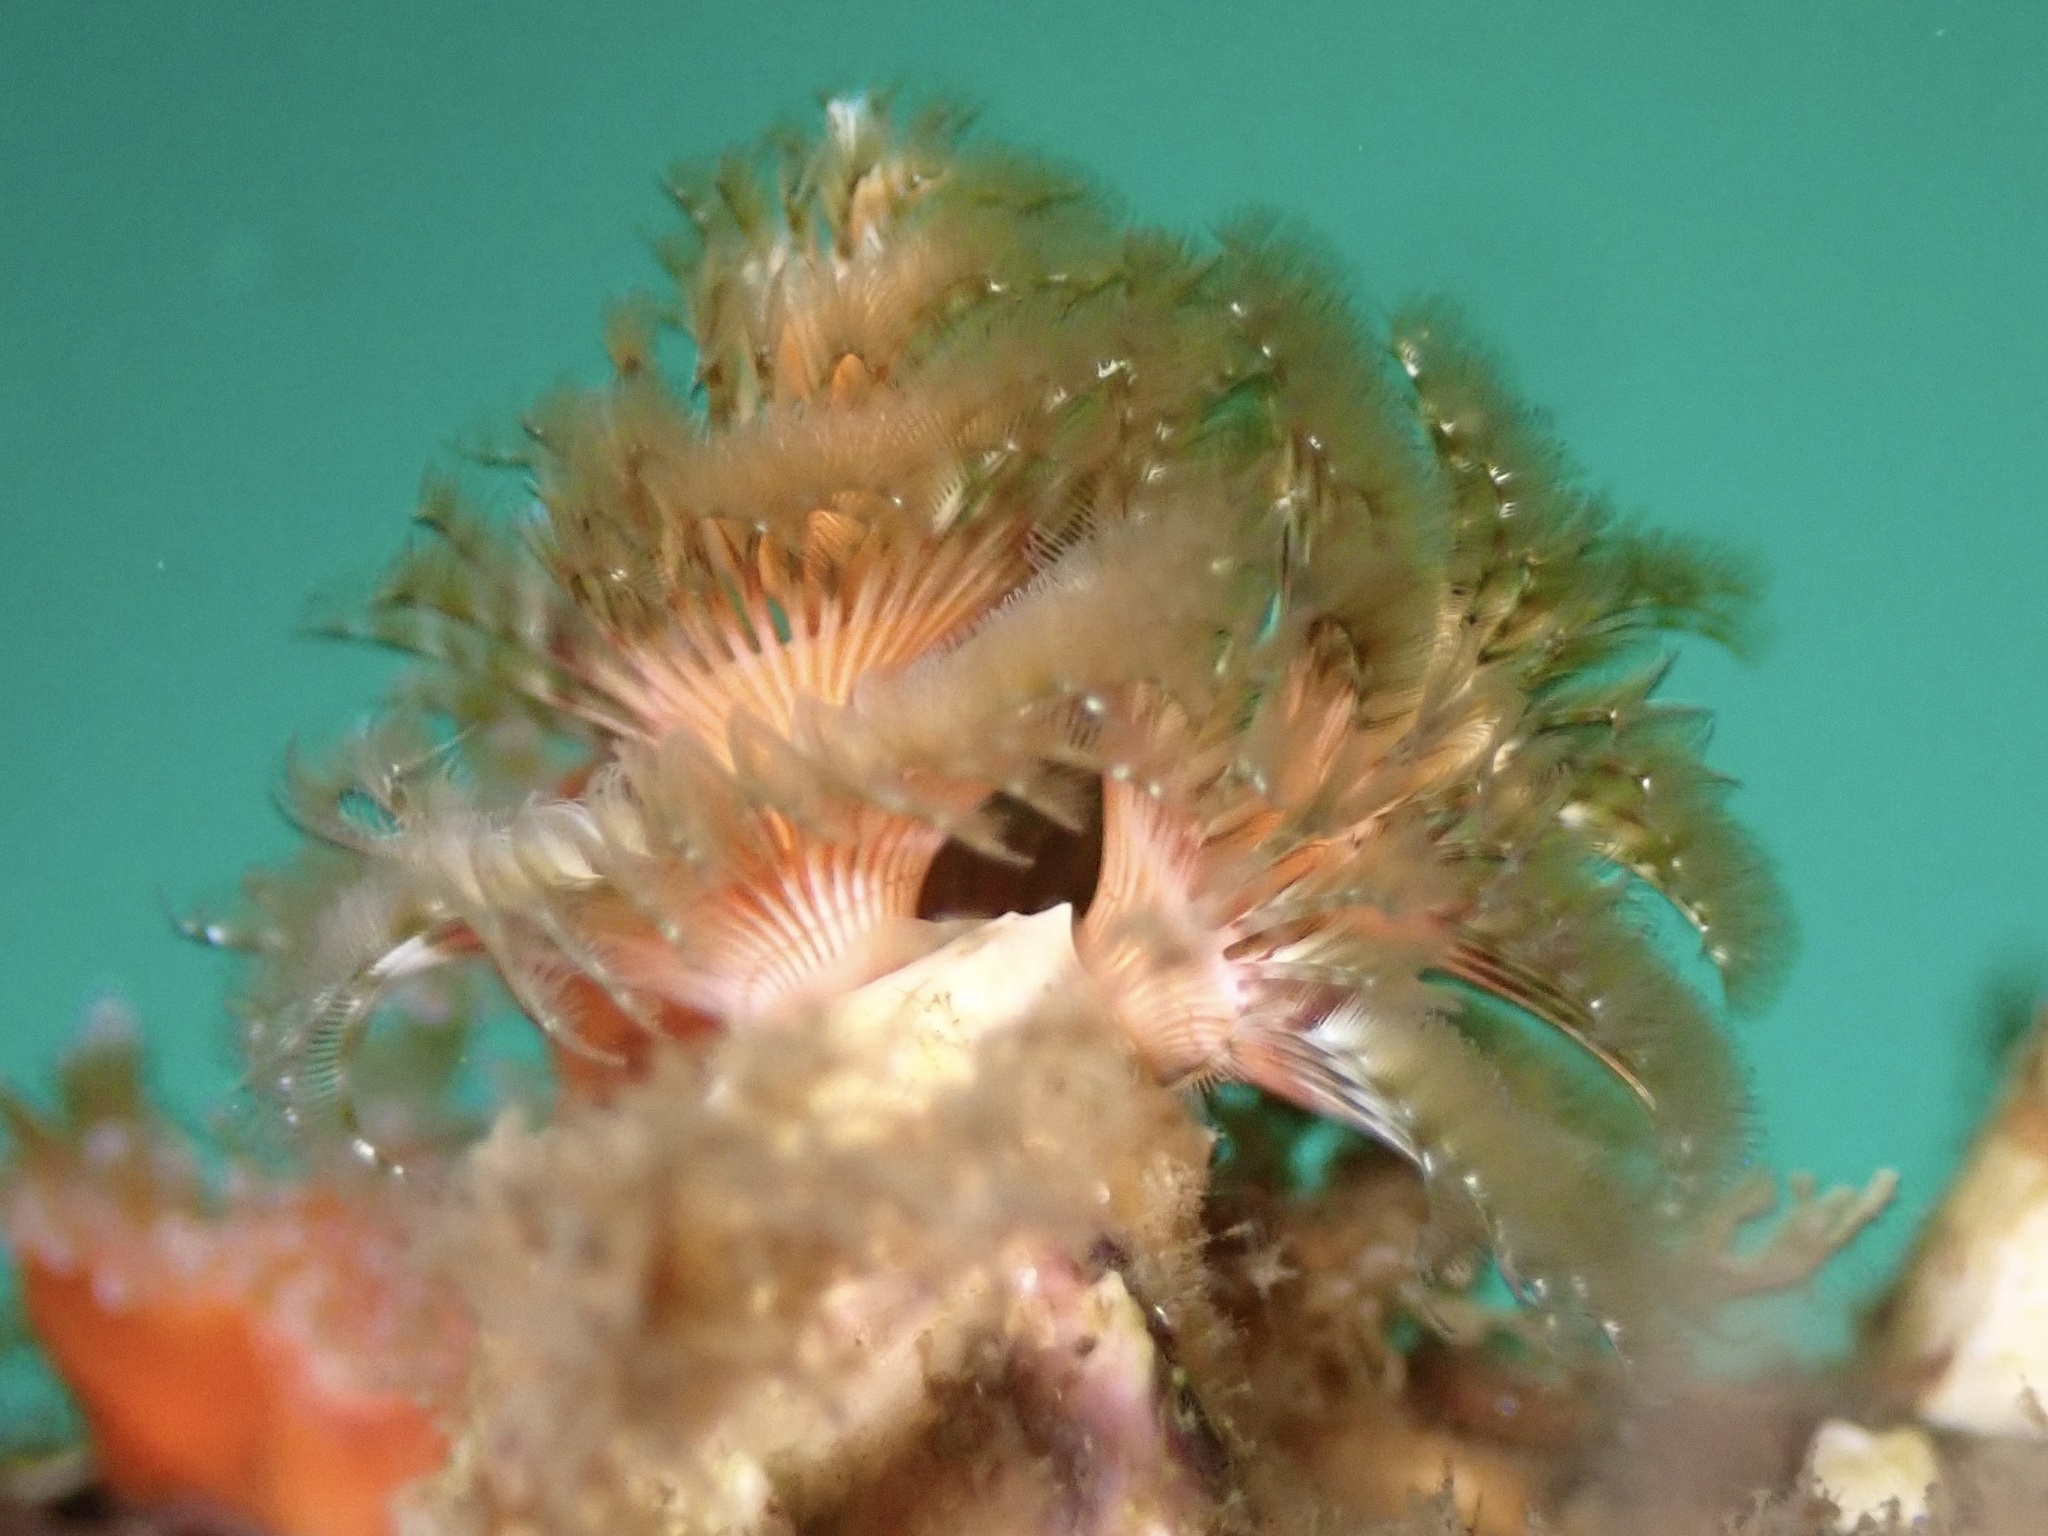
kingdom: Animalia
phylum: Annelida
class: Polychaeta
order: Sabellida
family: Serpulidae
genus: Spirobranchus
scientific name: Spirobranchus spinosus
